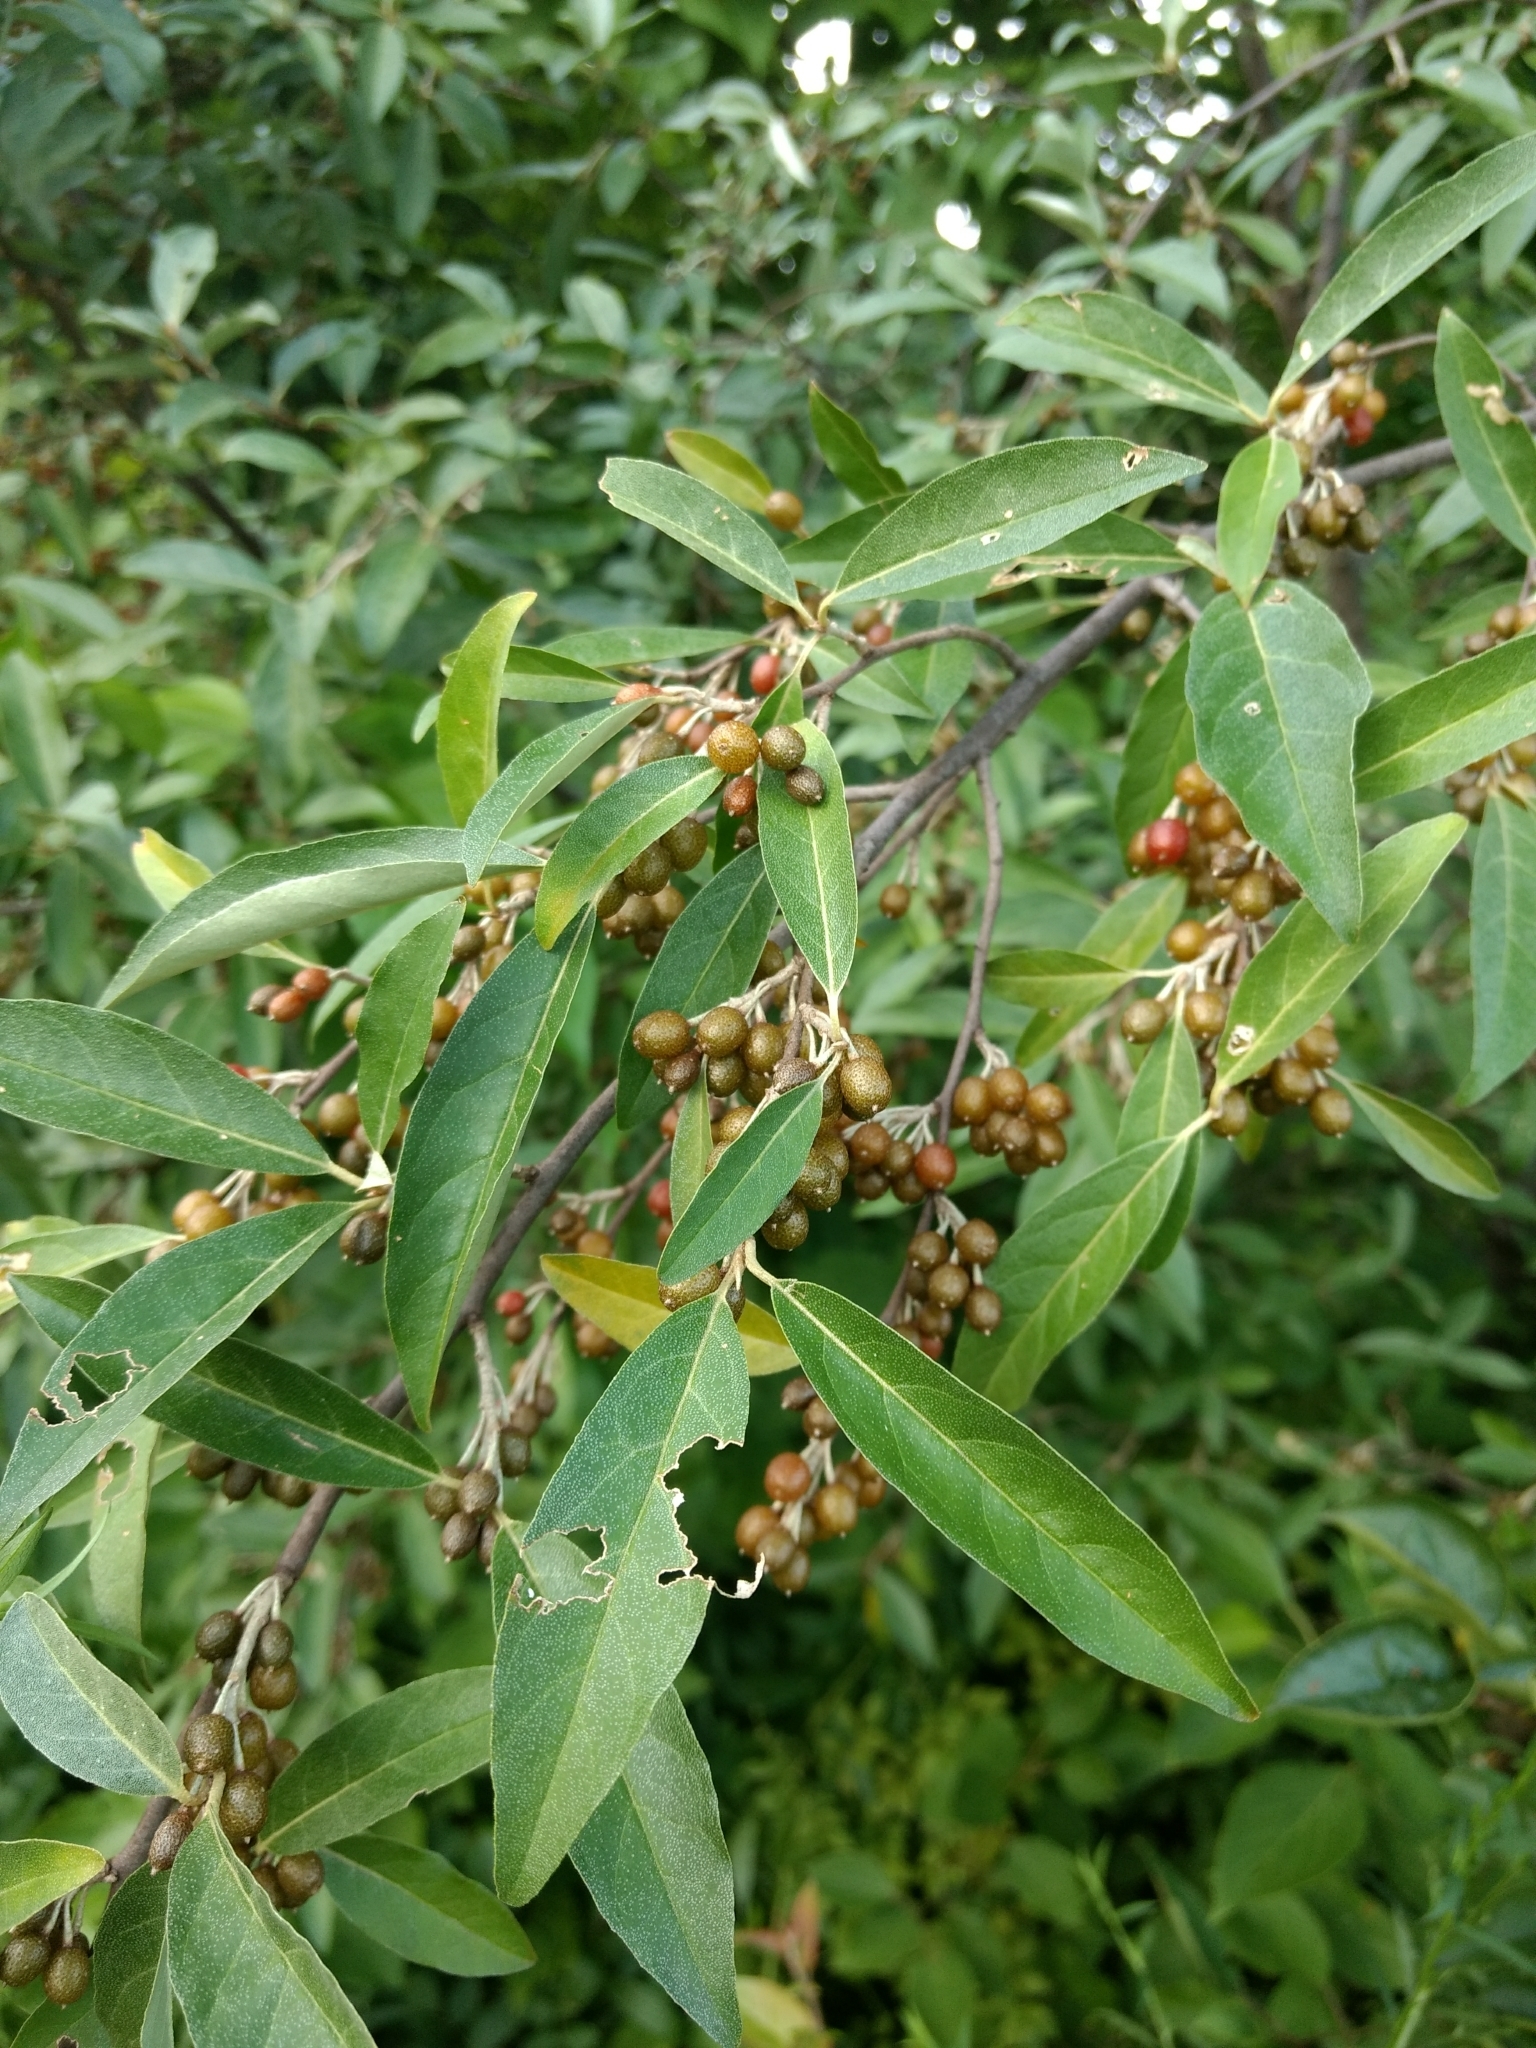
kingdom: Plantae
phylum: Tracheophyta
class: Magnoliopsida
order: Rosales
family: Elaeagnaceae
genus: Elaeagnus
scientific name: Elaeagnus umbellata
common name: Autumn olive
